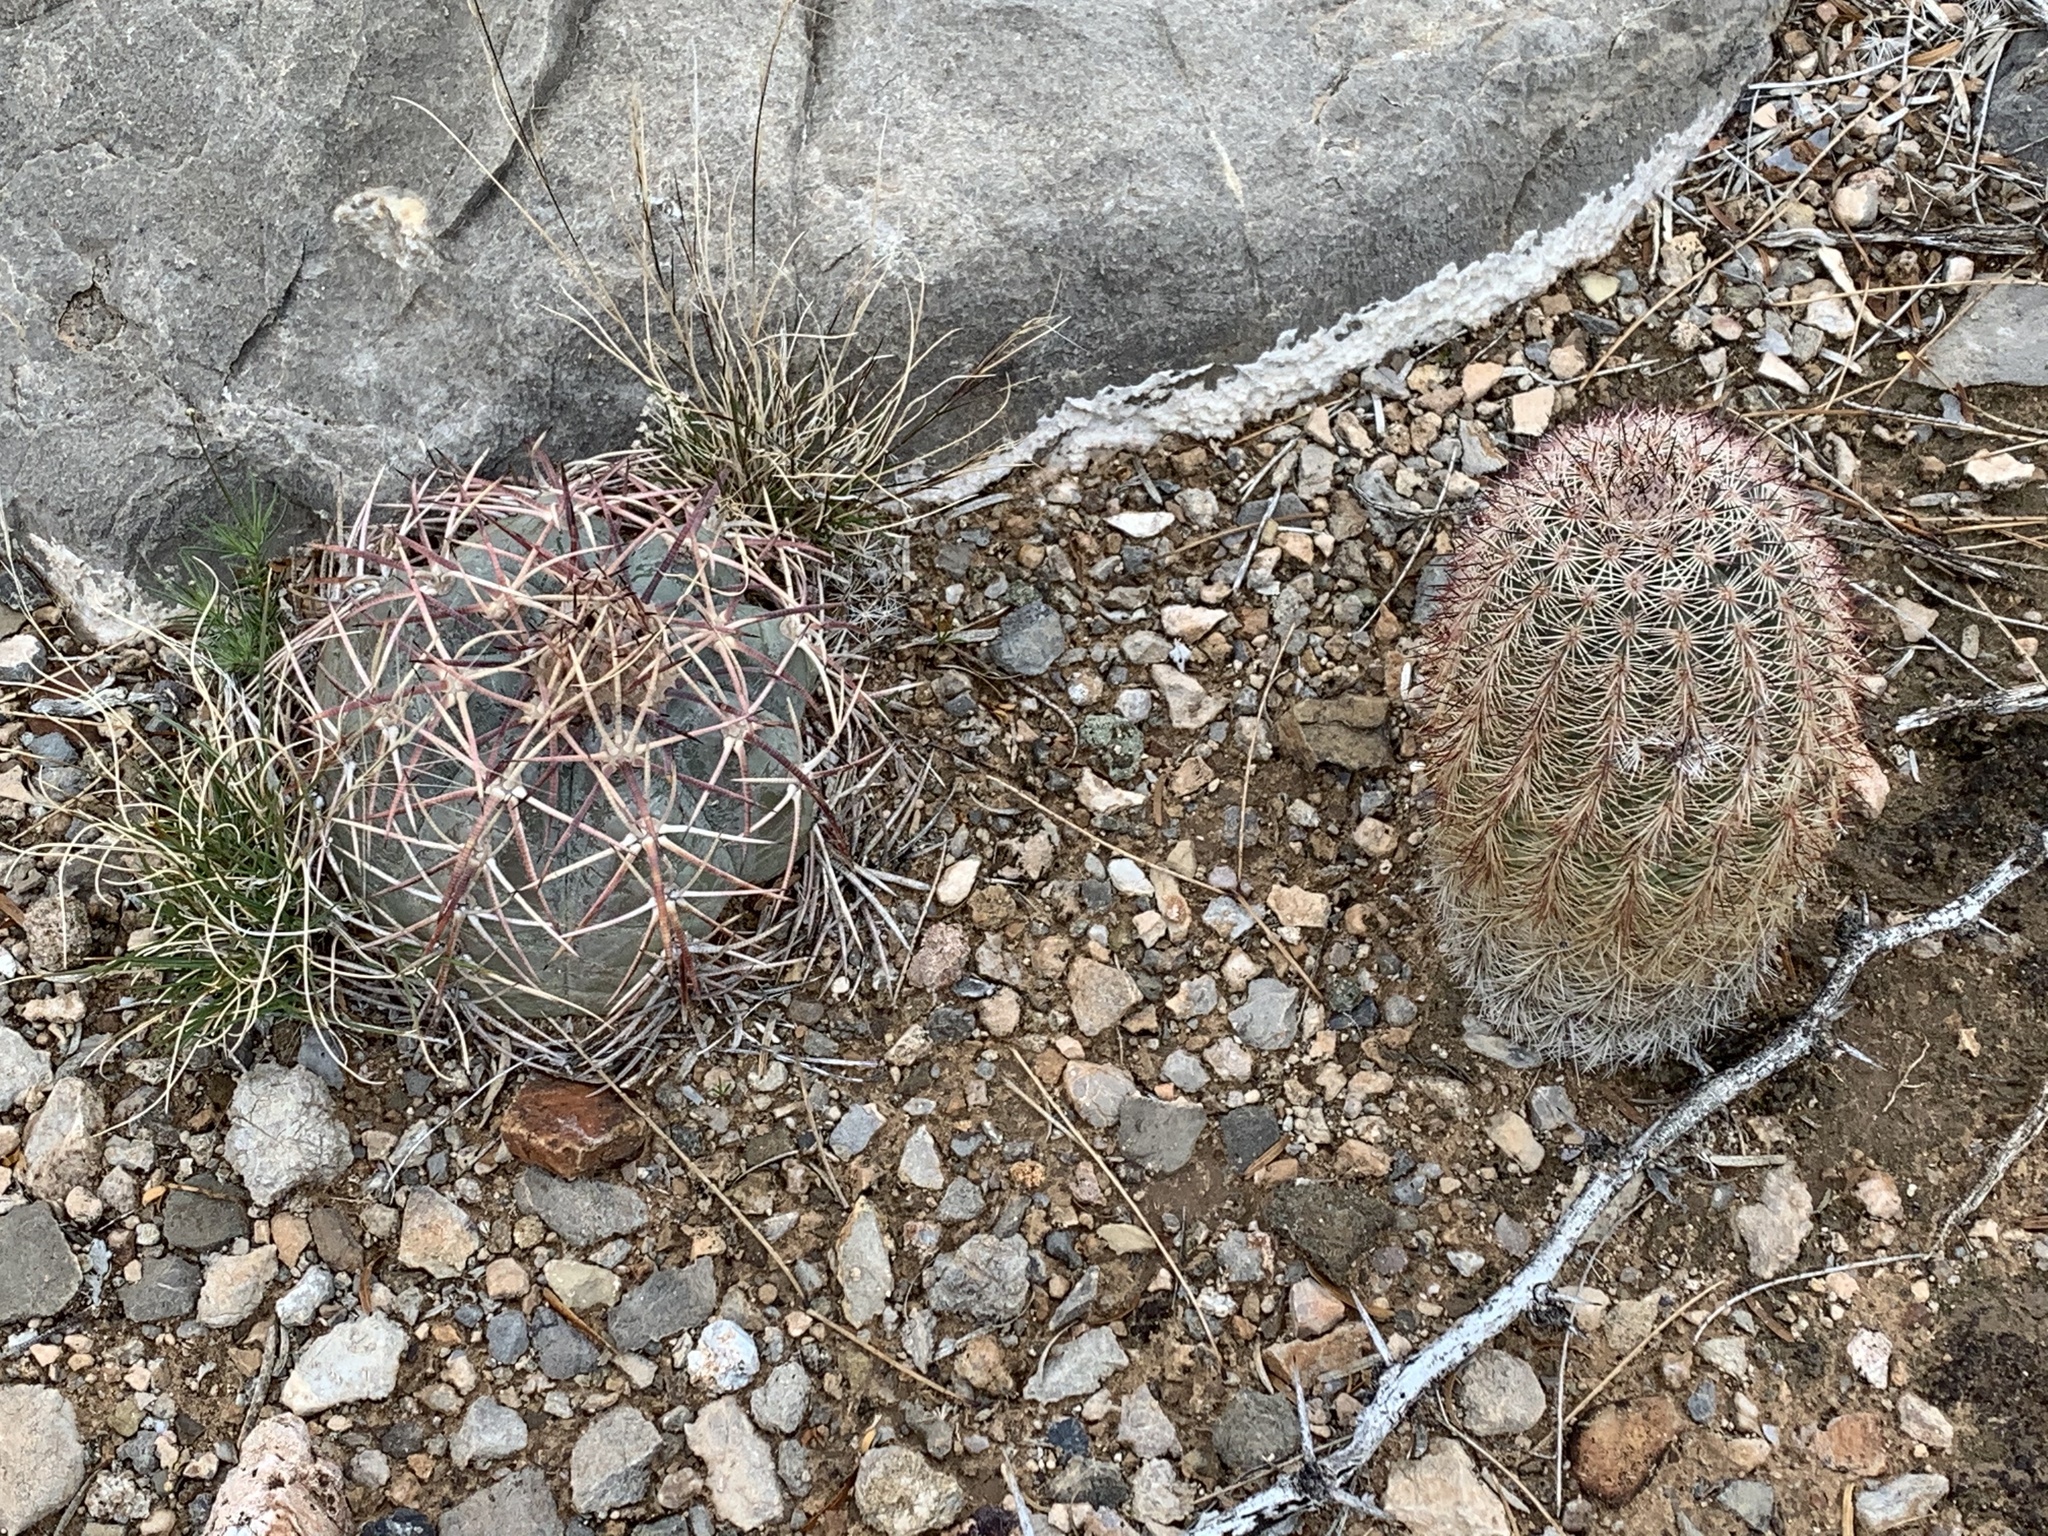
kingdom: Plantae
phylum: Tracheophyta
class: Magnoliopsida
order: Caryophyllales
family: Cactaceae
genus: Echinocactus
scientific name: Echinocactus horizonthalonius
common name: Devilshead
